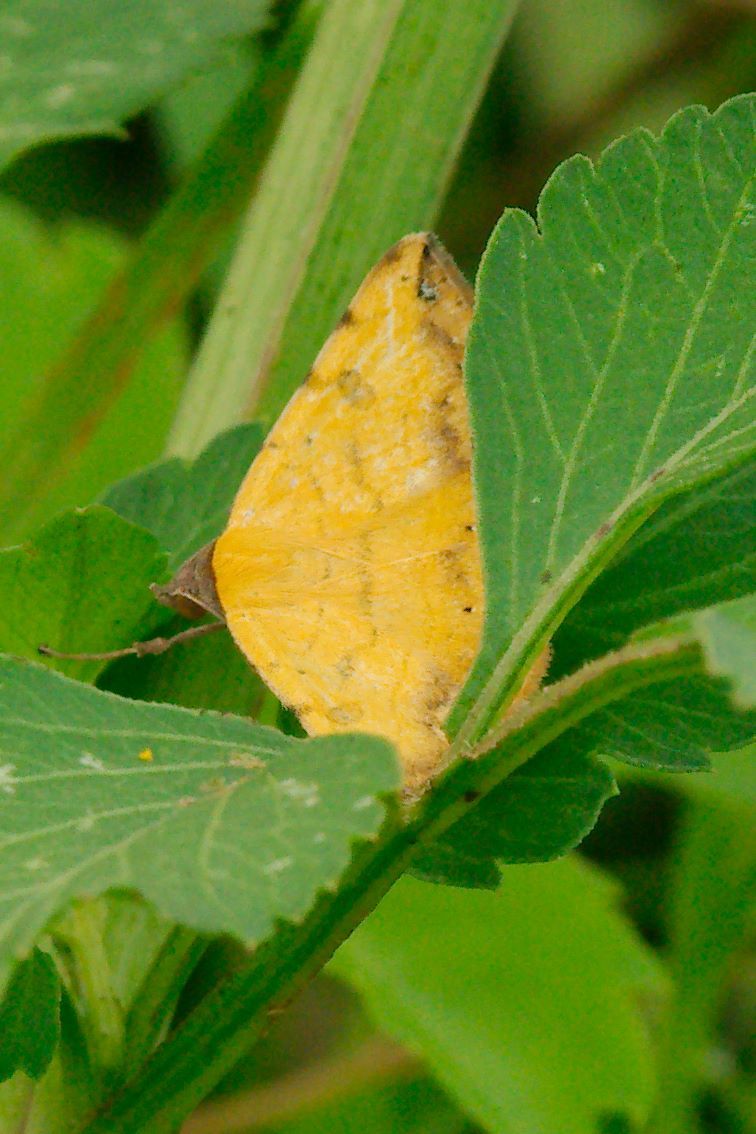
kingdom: Animalia
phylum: Arthropoda
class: Insecta
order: Lepidoptera
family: Erebidae
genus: Hemeroplanis
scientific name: Hemeroplanis scopulepes
